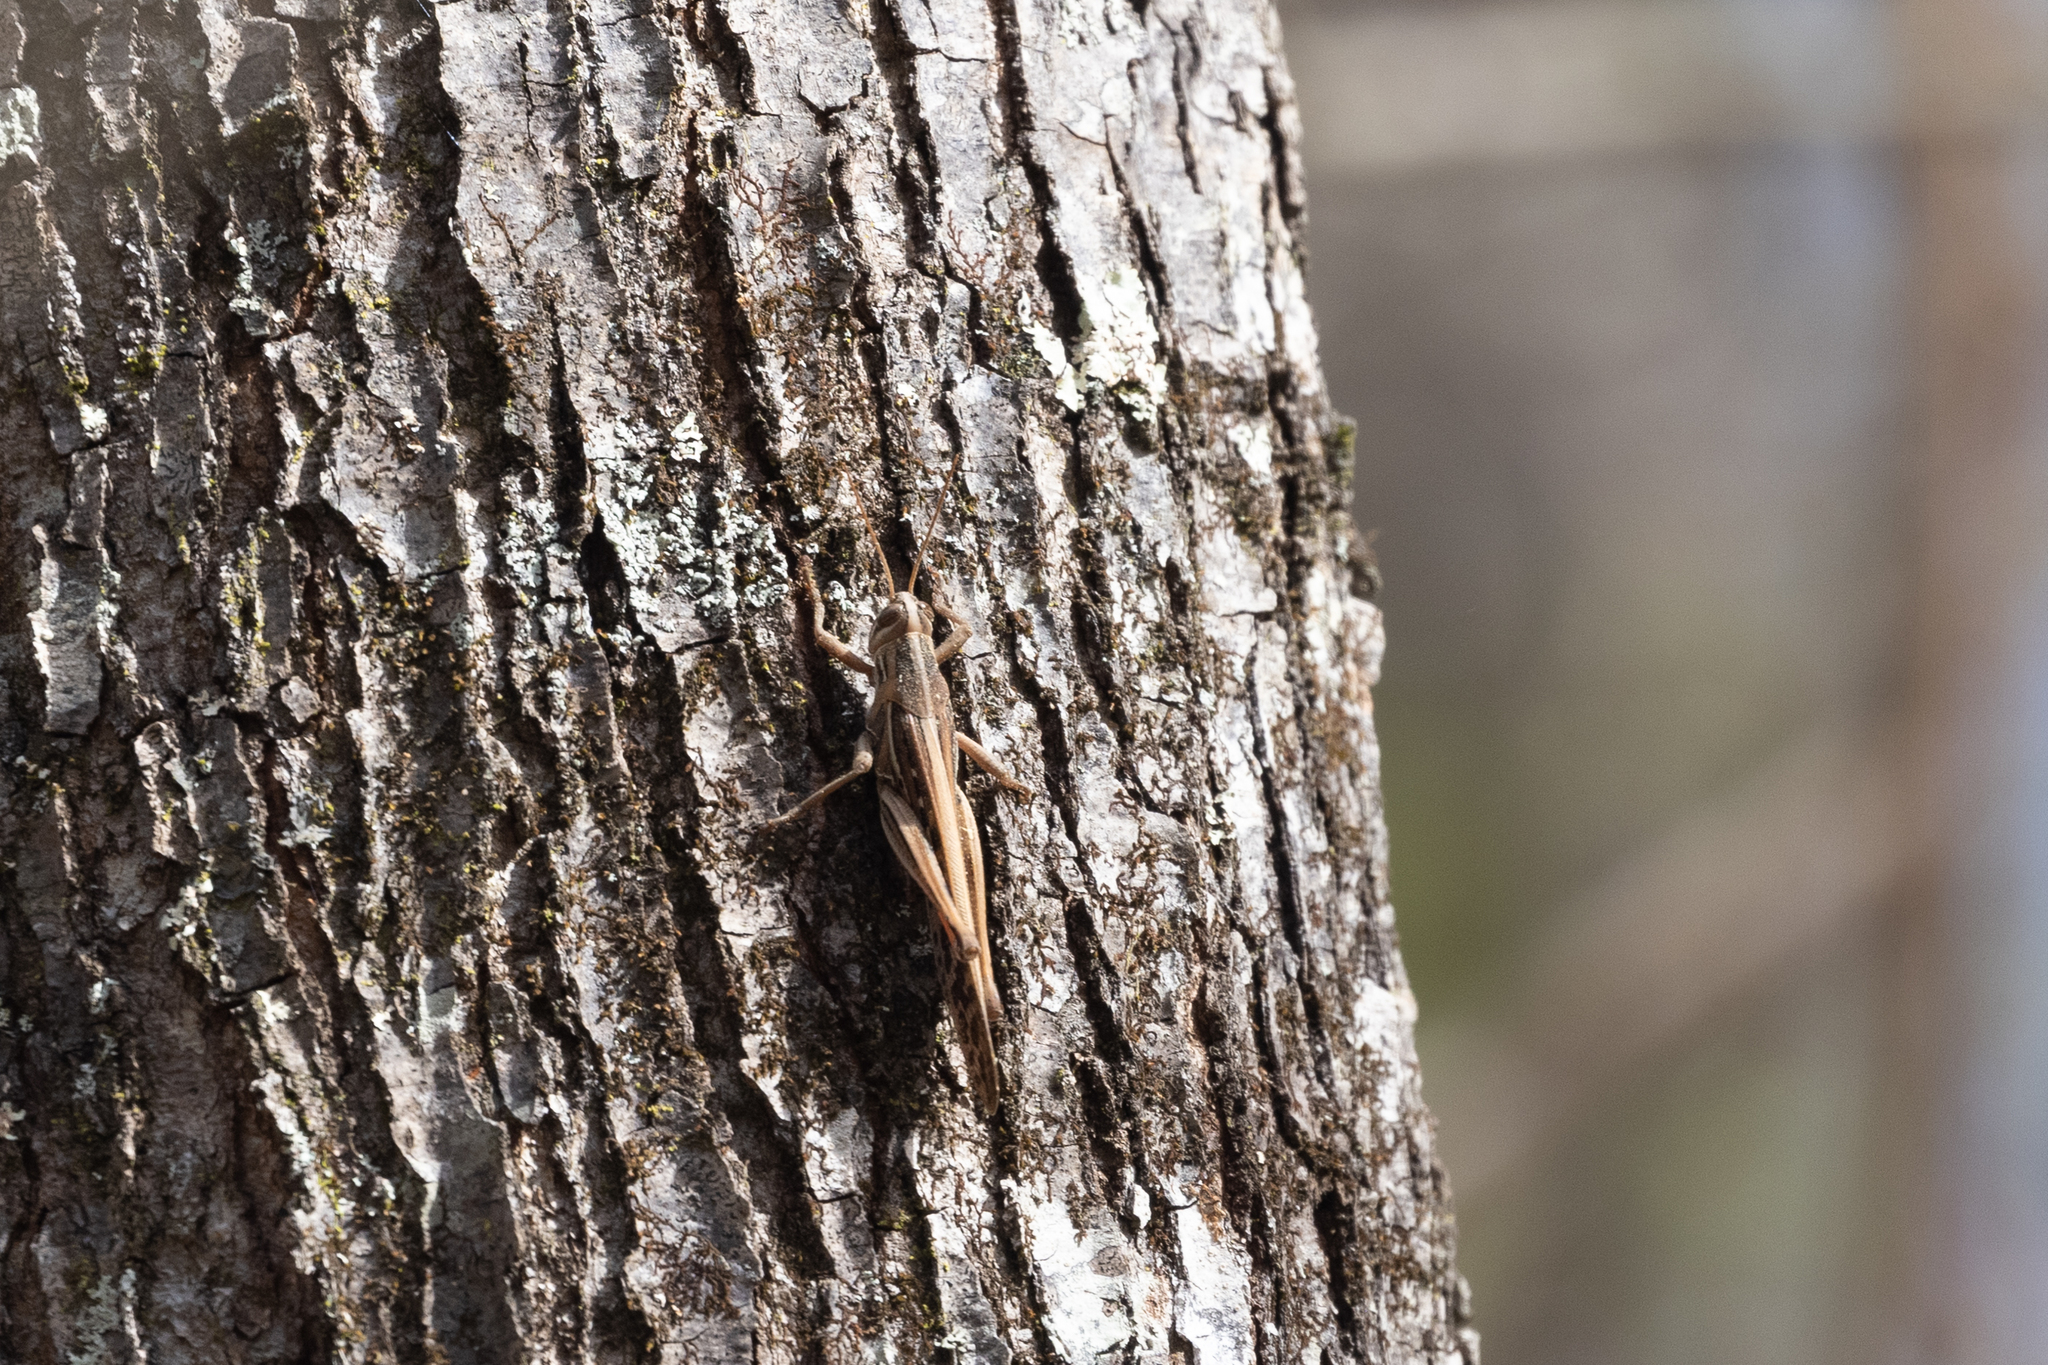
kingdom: Animalia
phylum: Arthropoda
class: Insecta
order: Orthoptera
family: Acrididae
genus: Schistocerca
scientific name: Schistocerca americana
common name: American bird locust
